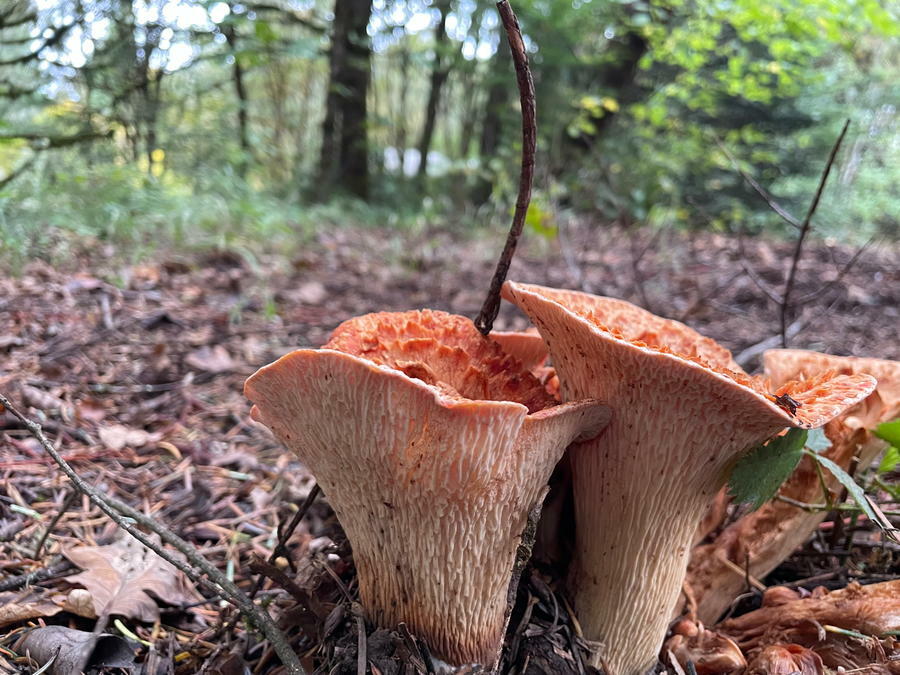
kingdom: Fungi
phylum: Basidiomycota
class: Agaricomycetes
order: Gomphales
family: Gomphaceae
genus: Turbinellus
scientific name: Turbinellus floccosus
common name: Scaly chanterelle
